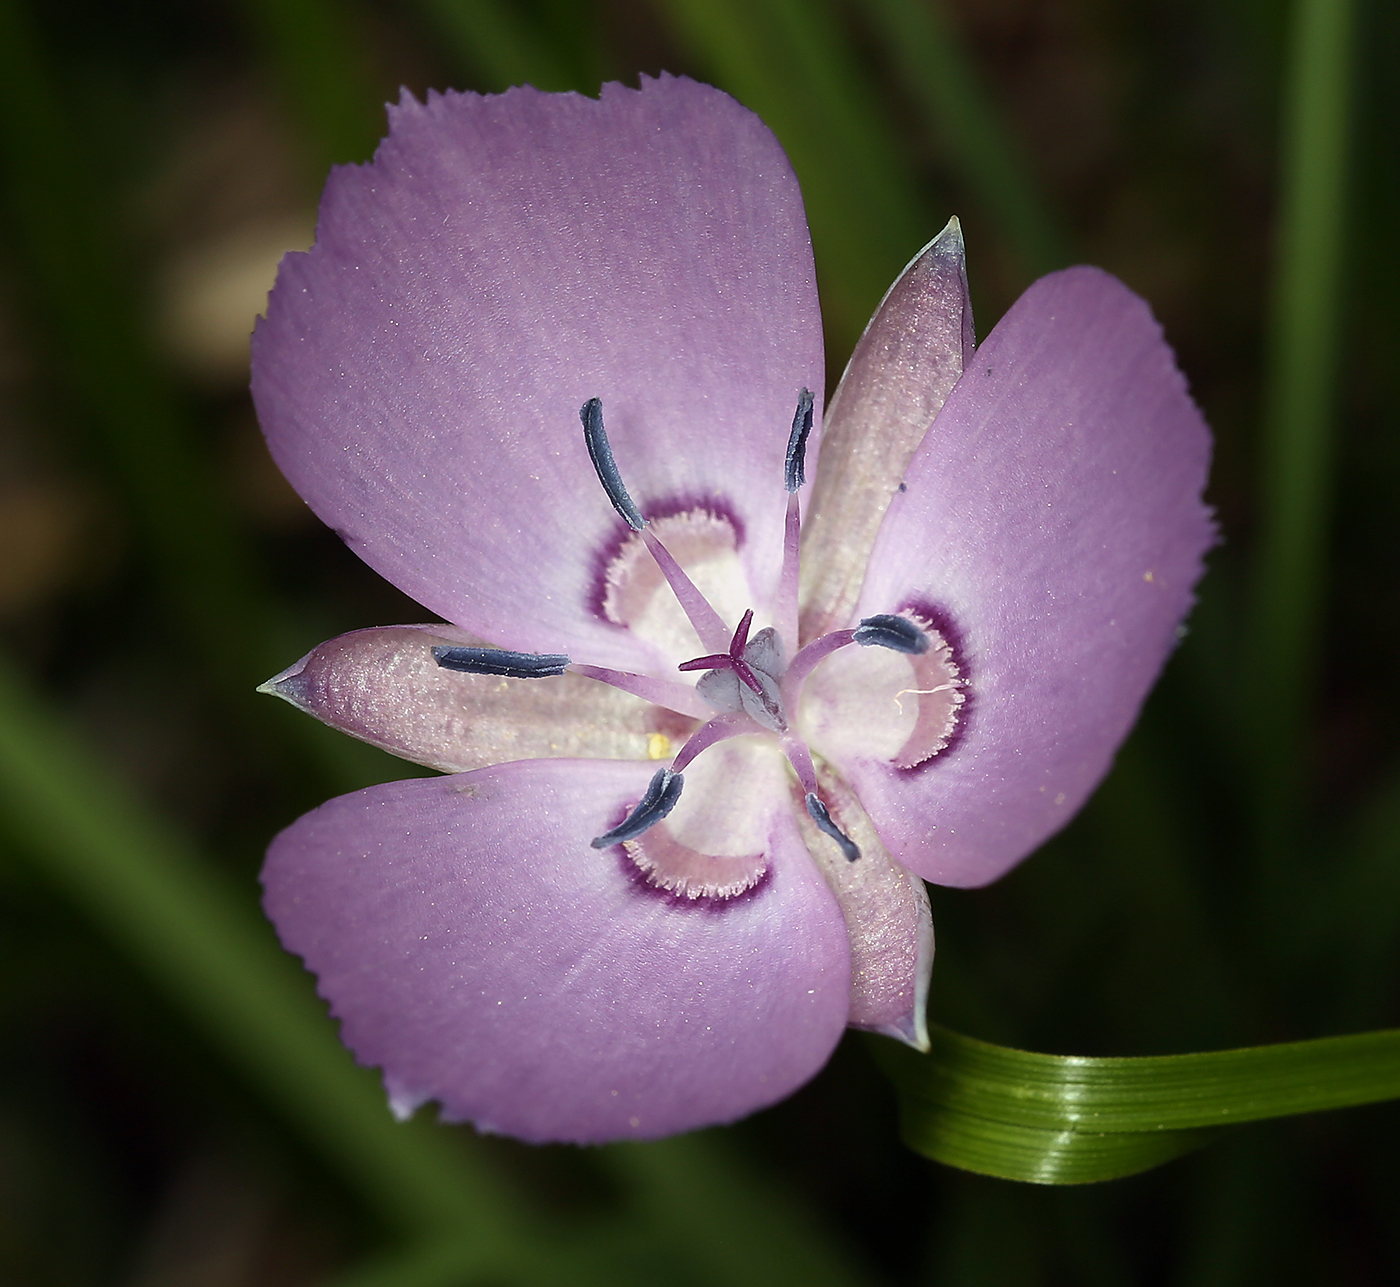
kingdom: Plantae
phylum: Tracheophyta
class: Liliopsida
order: Liliales
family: Liliaceae
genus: Calochortus
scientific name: Calochortus nudus
